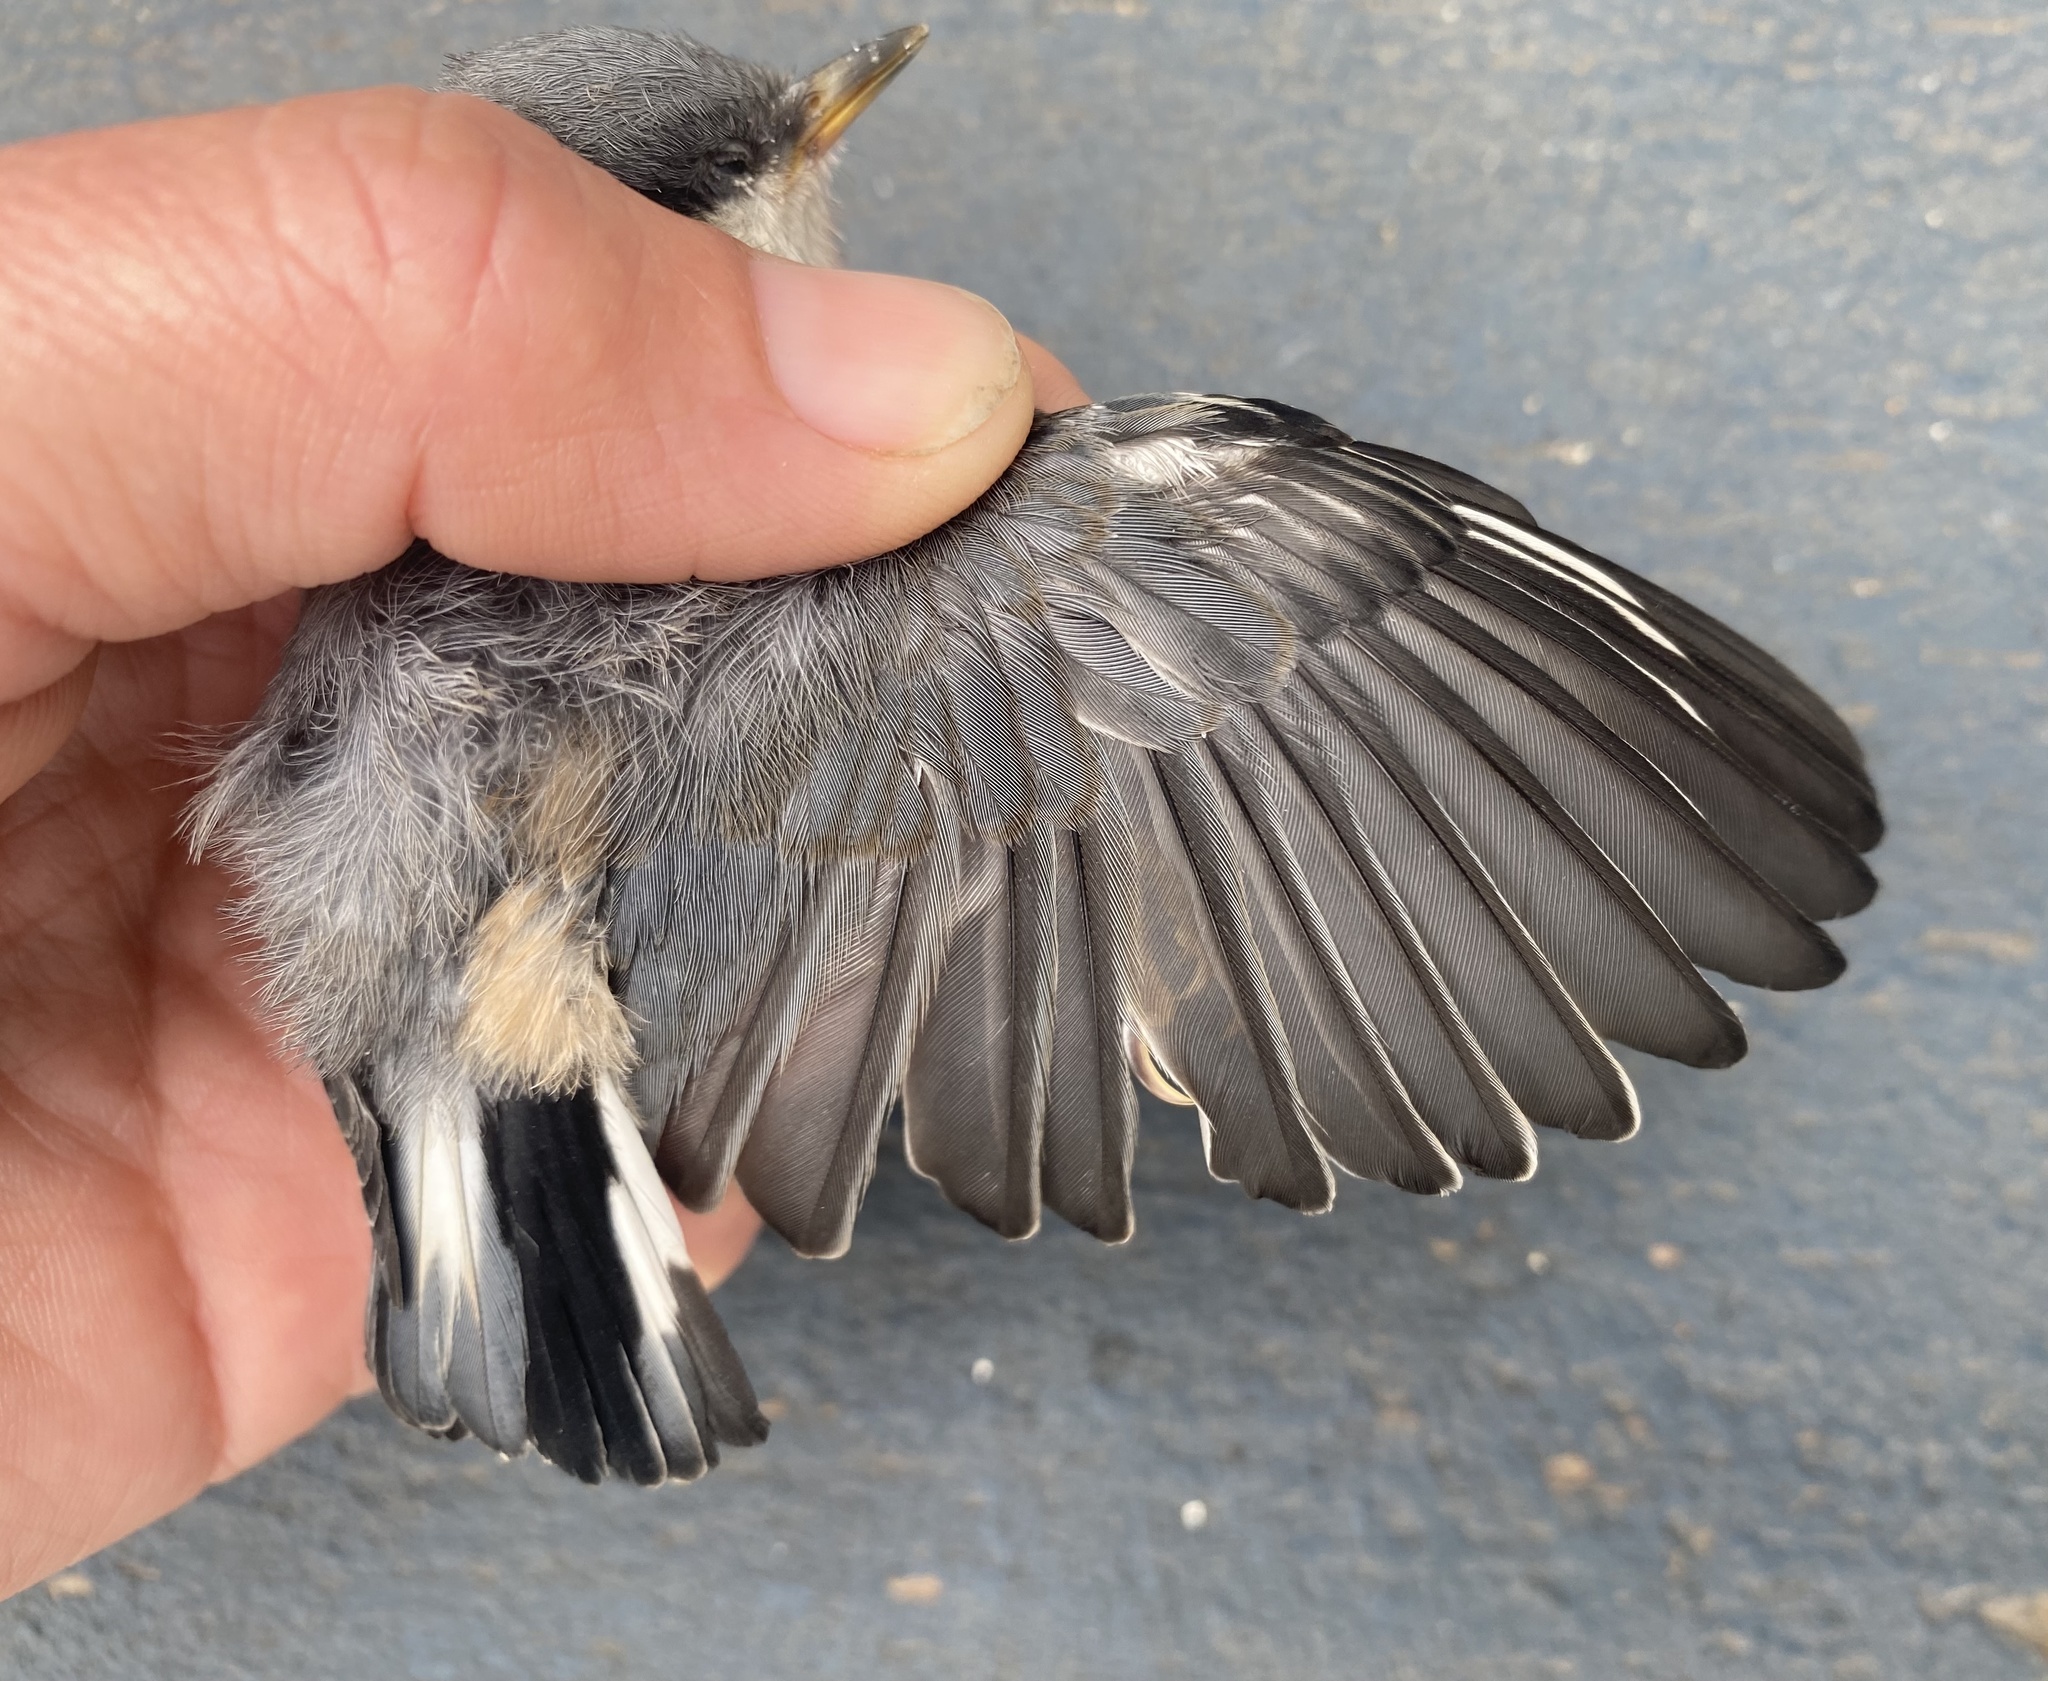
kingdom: Animalia
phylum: Chordata
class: Aves
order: Passeriformes
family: Sittidae
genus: Sitta
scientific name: Sitta pygmaea
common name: Pygmy nuthatch
